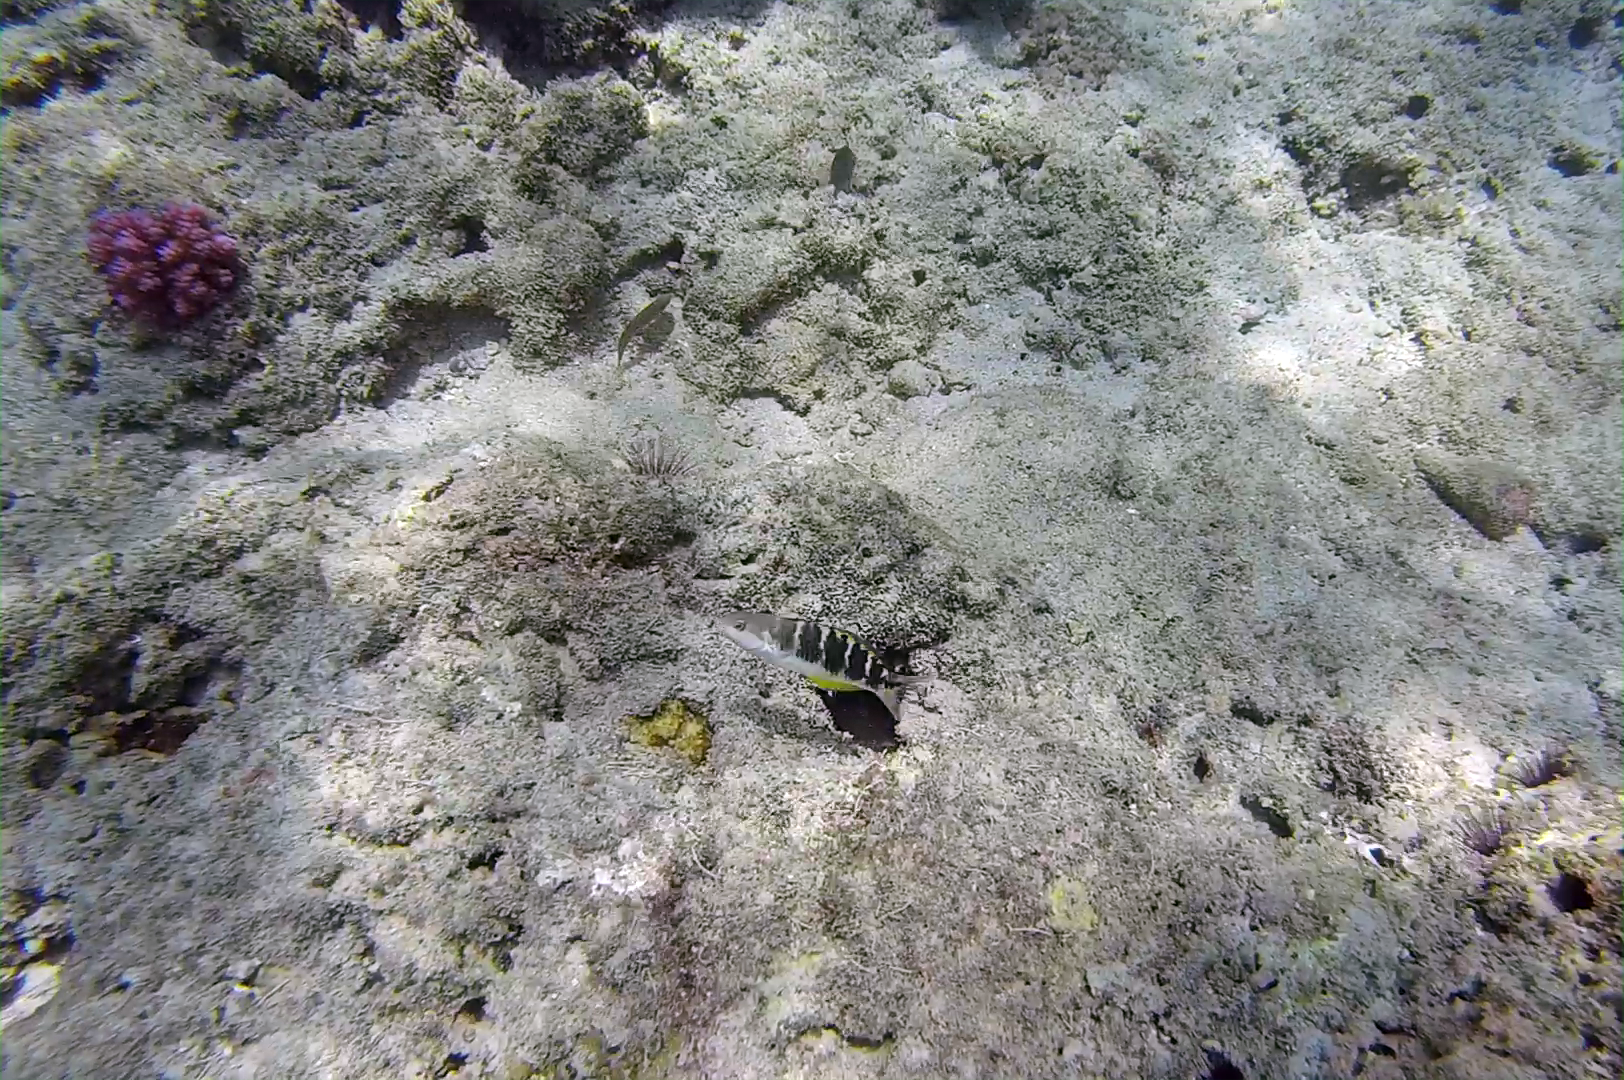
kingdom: Animalia
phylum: Chordata
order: Perciformes
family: Labridae
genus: Thalassoma
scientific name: Thalassoma jansenii
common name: Jansen's wrasse
